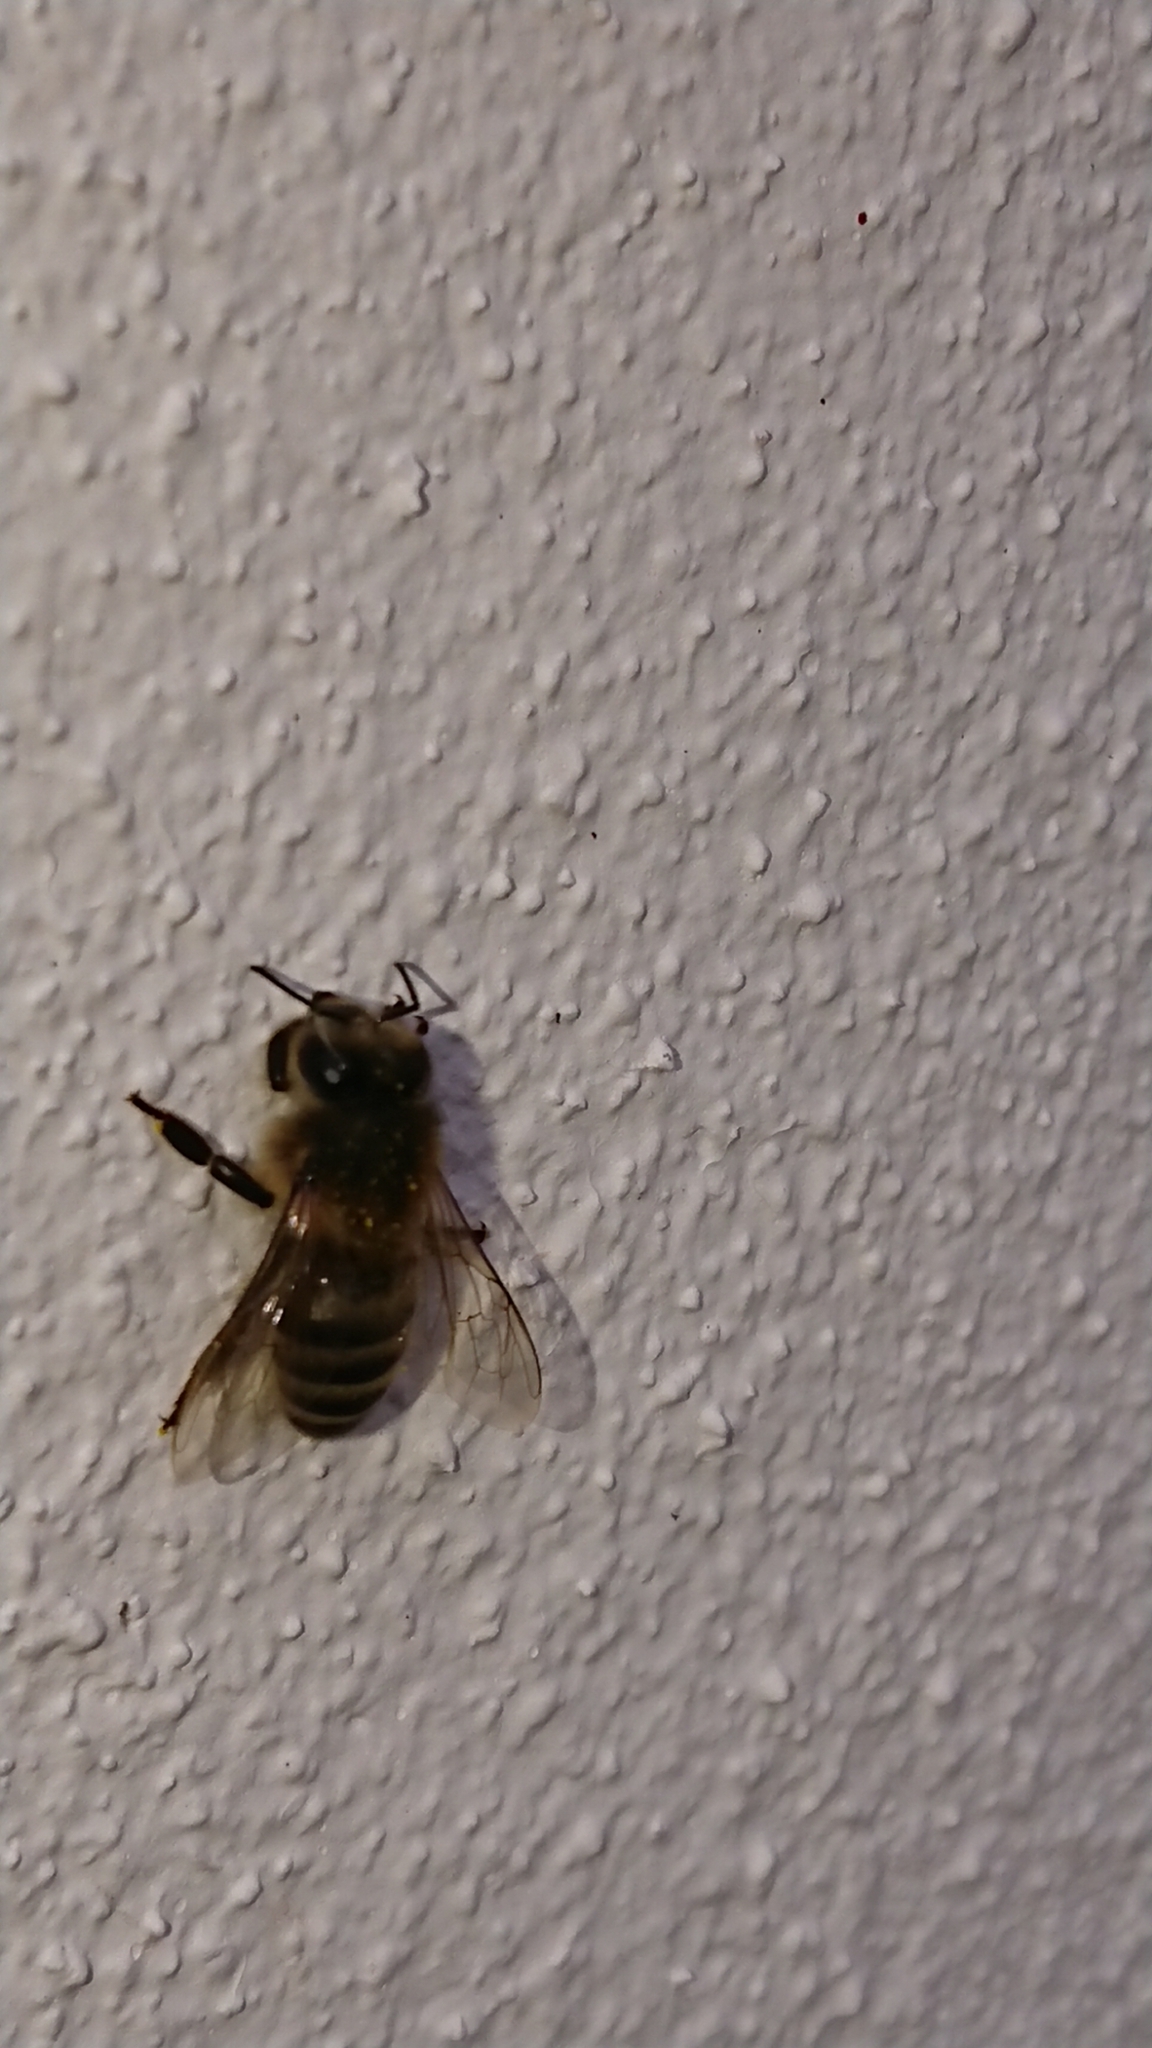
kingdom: Animalia
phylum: Arthropoda
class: Insecta
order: Hymenoptera
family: Apidae
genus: Apis
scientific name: Apis mellifera
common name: Honey bee
